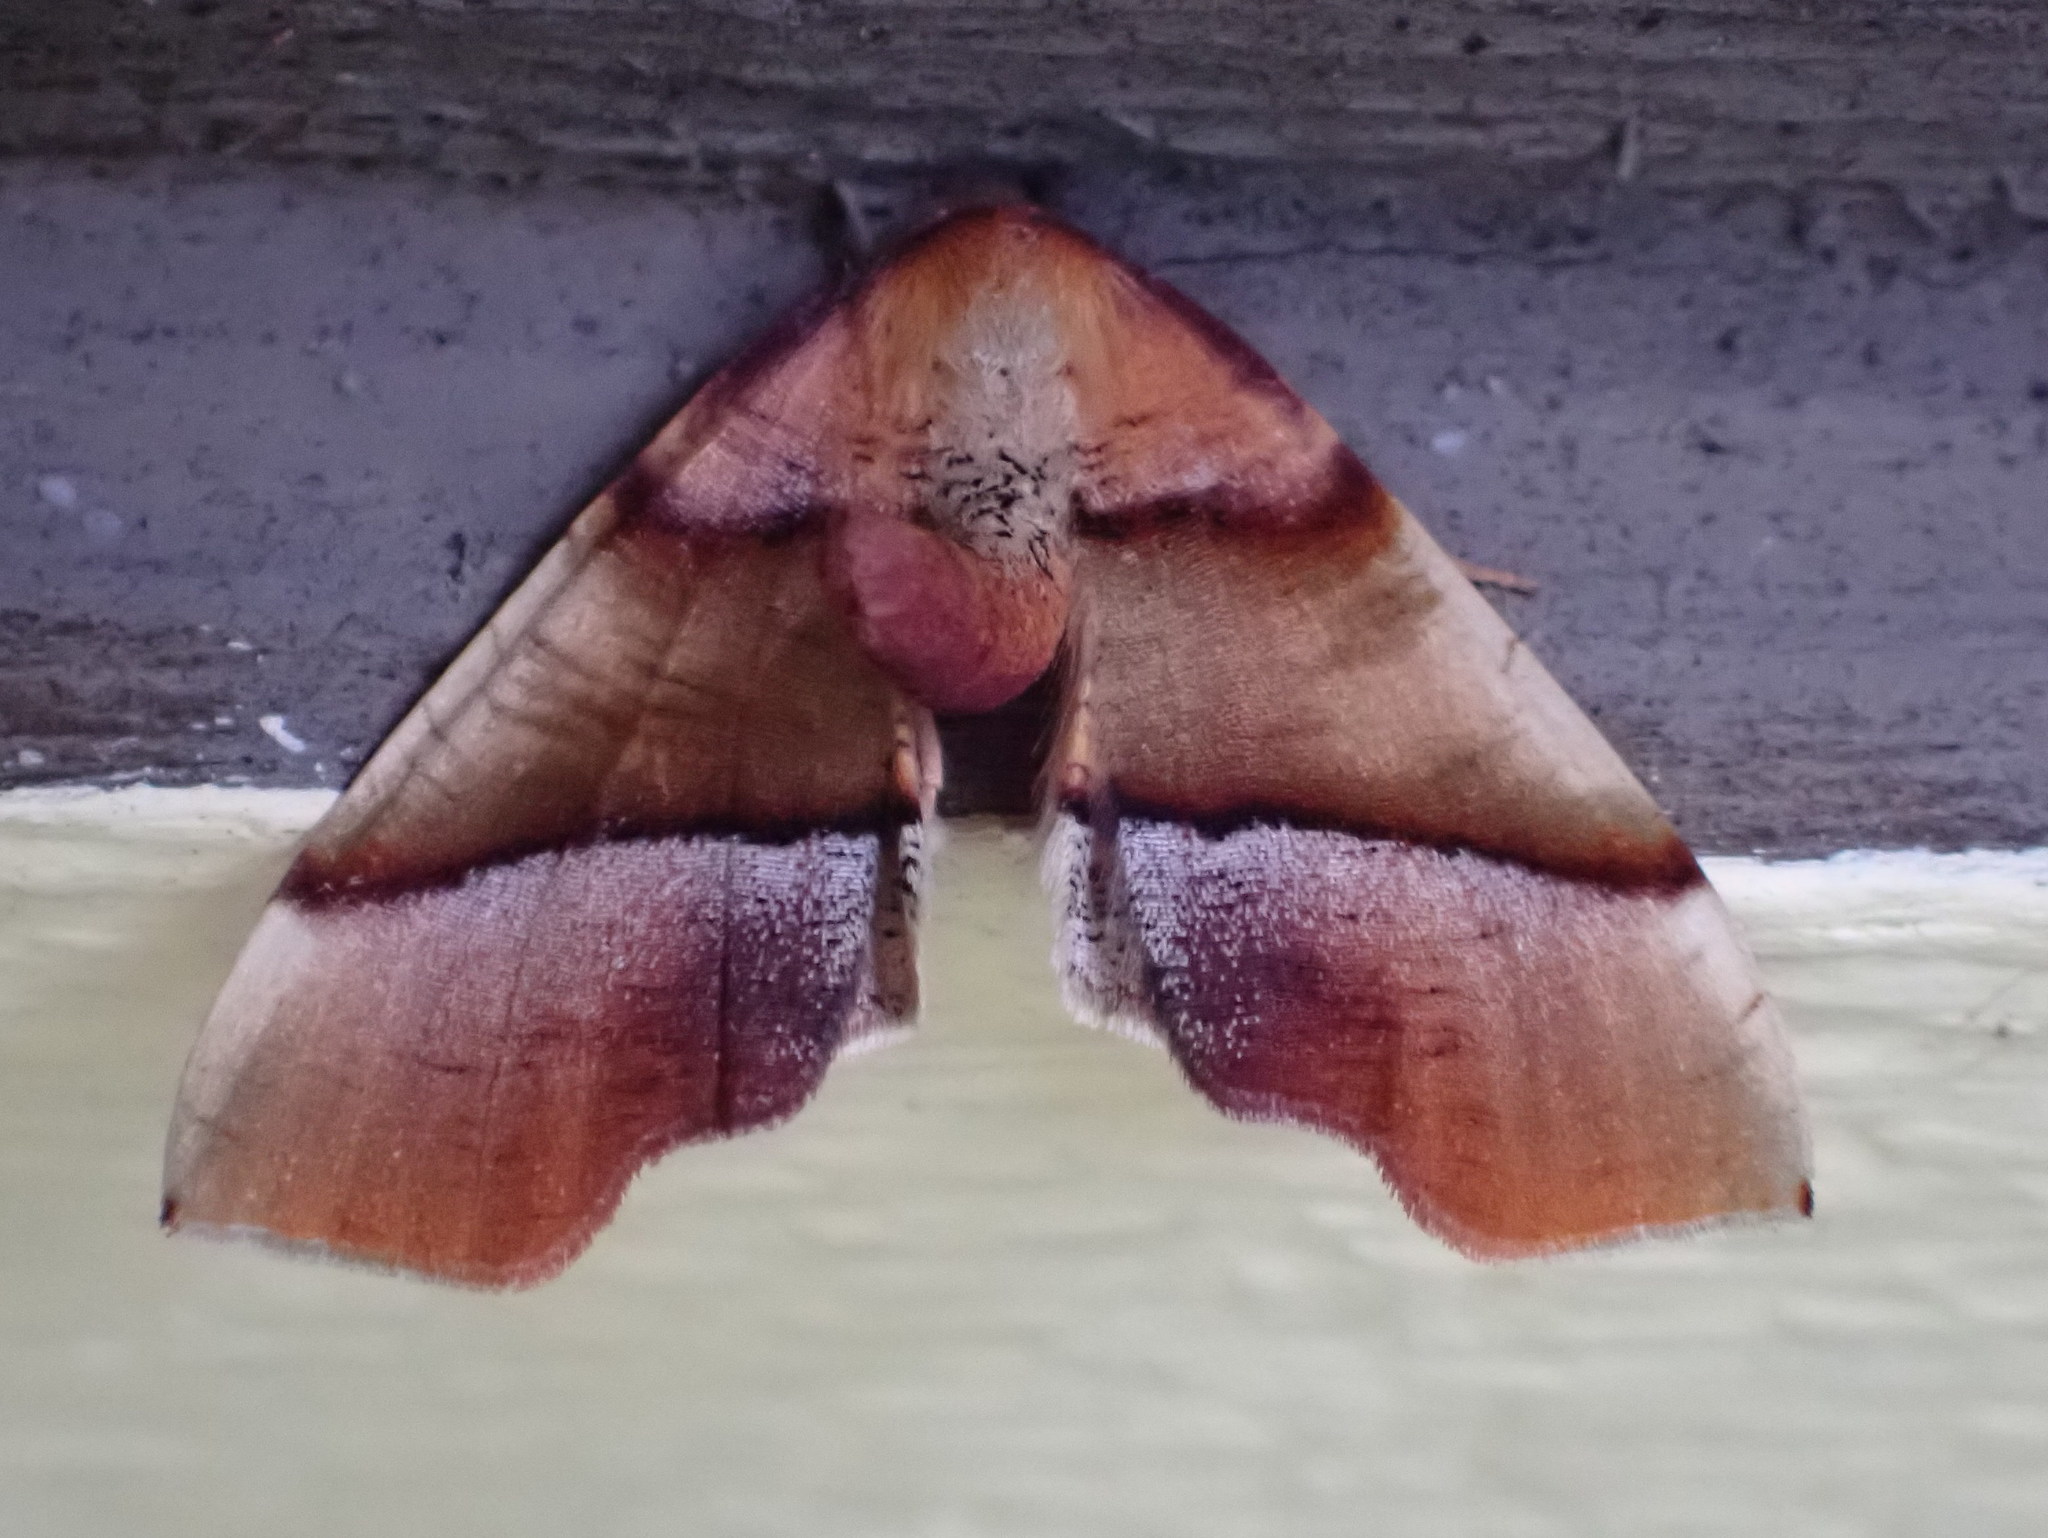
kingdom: Animalia
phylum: Arthropoda
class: Insecta
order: Lepidoptera
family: Geometridae
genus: Plagodis
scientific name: Plagodis phlogosaria
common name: Straight-lined plagodis
